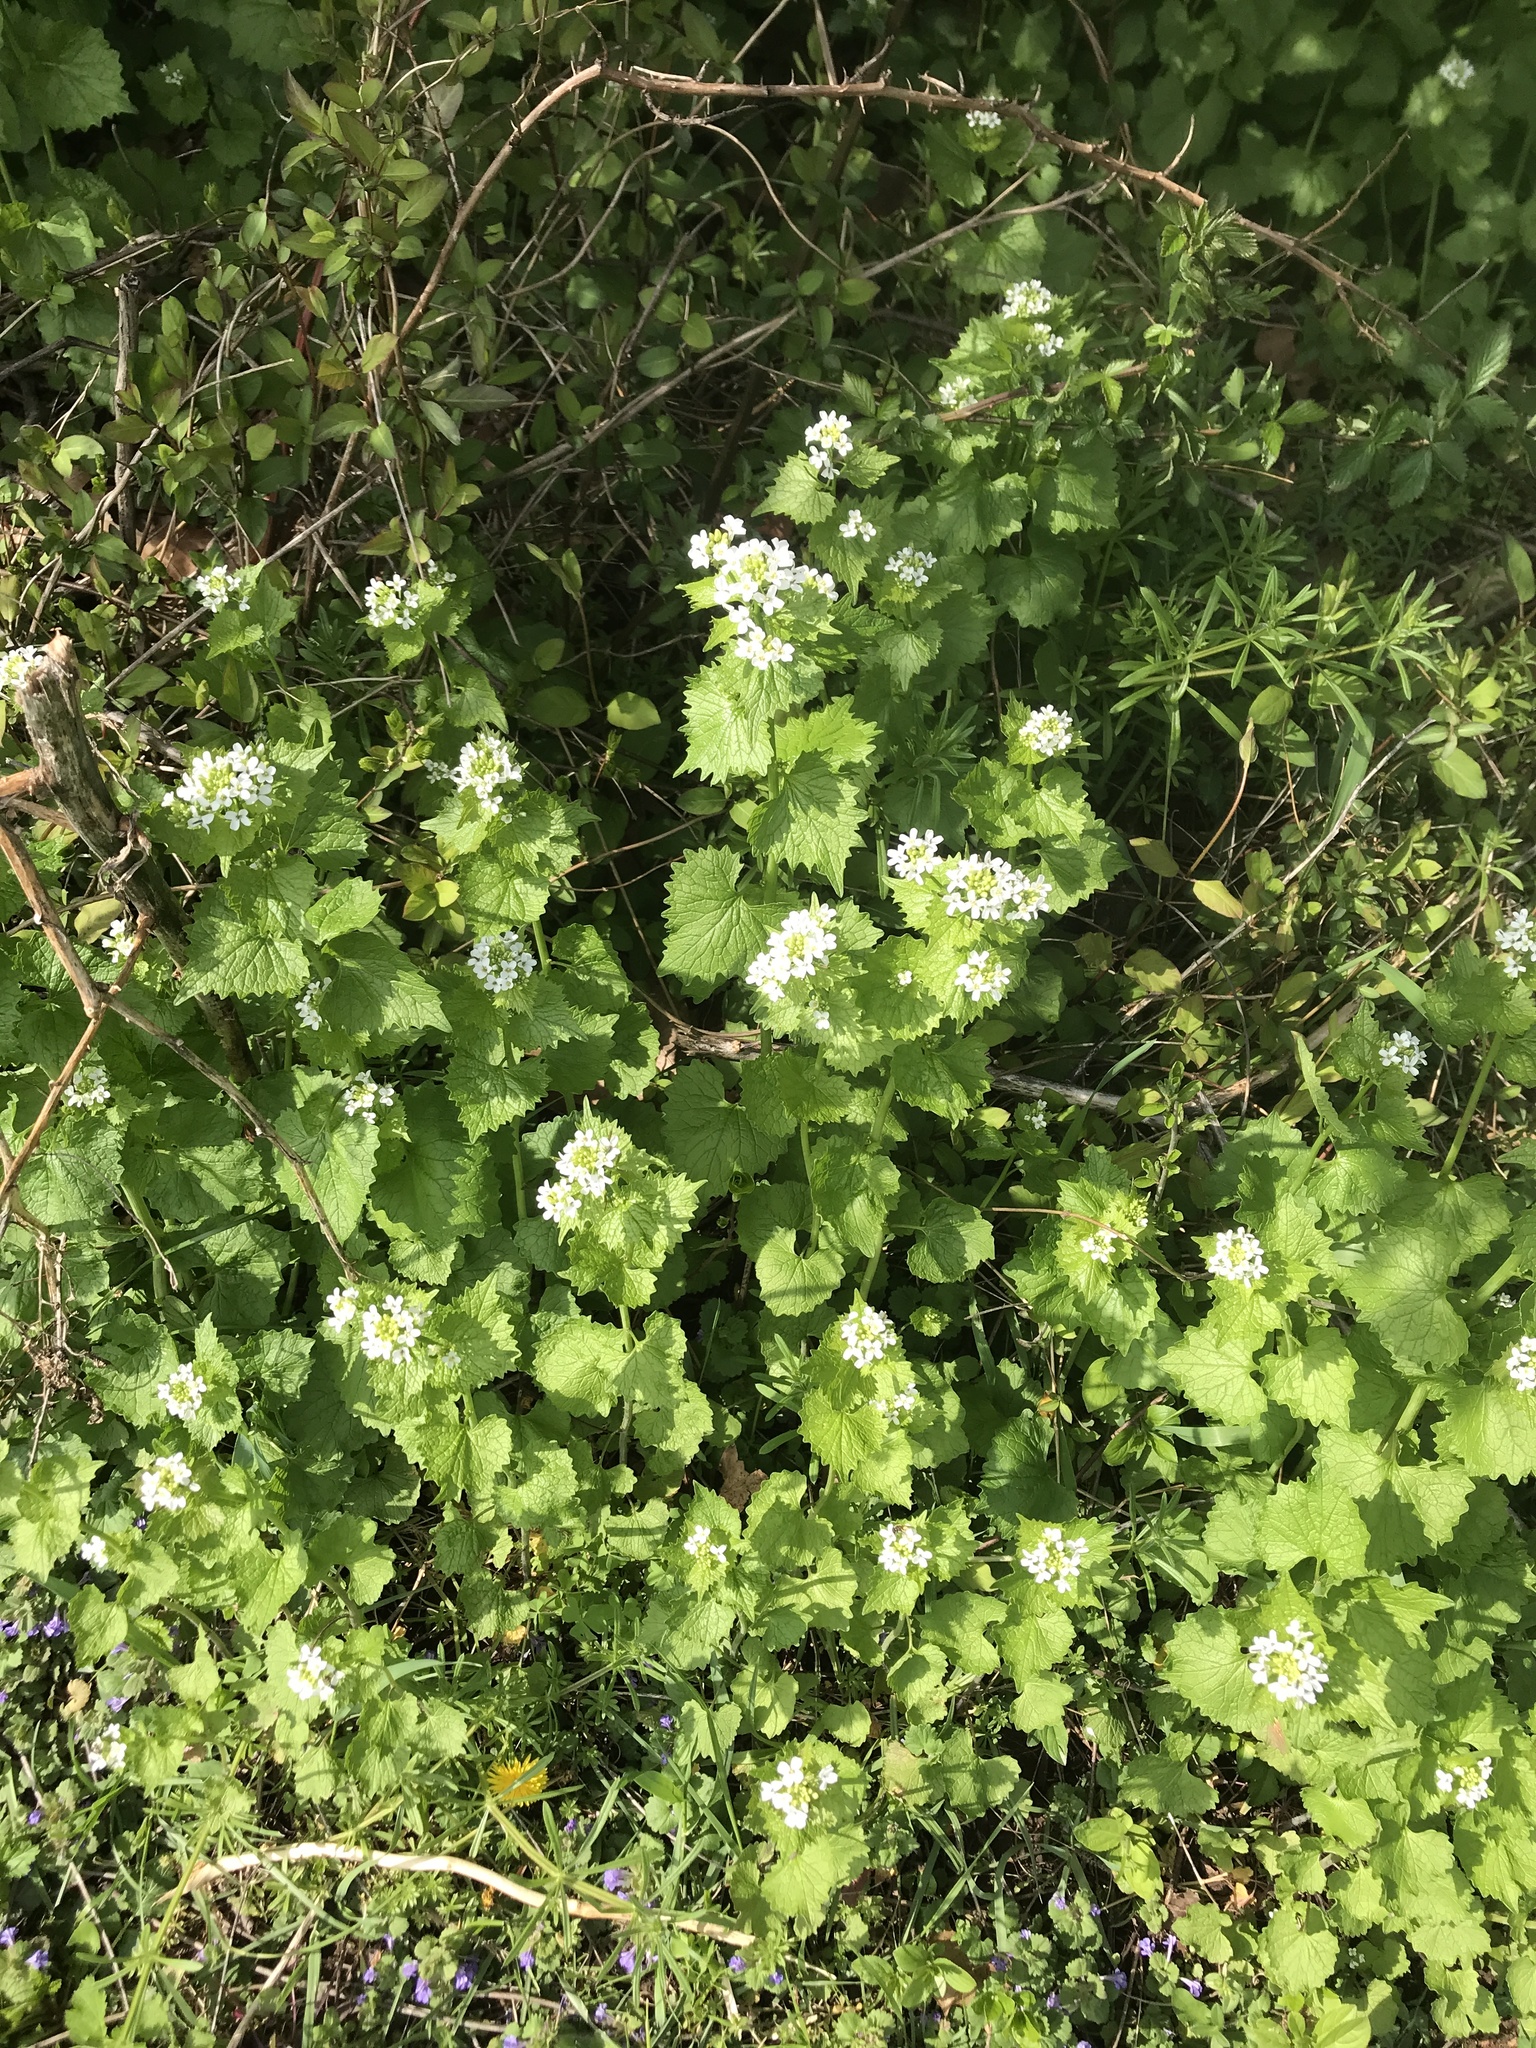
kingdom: Plantae
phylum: Tracheophyta
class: Magnoliopsida
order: Brassicales
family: Brassicaceae
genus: Alliaria
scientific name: Alliaria petiolata
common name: Garlic mustard
